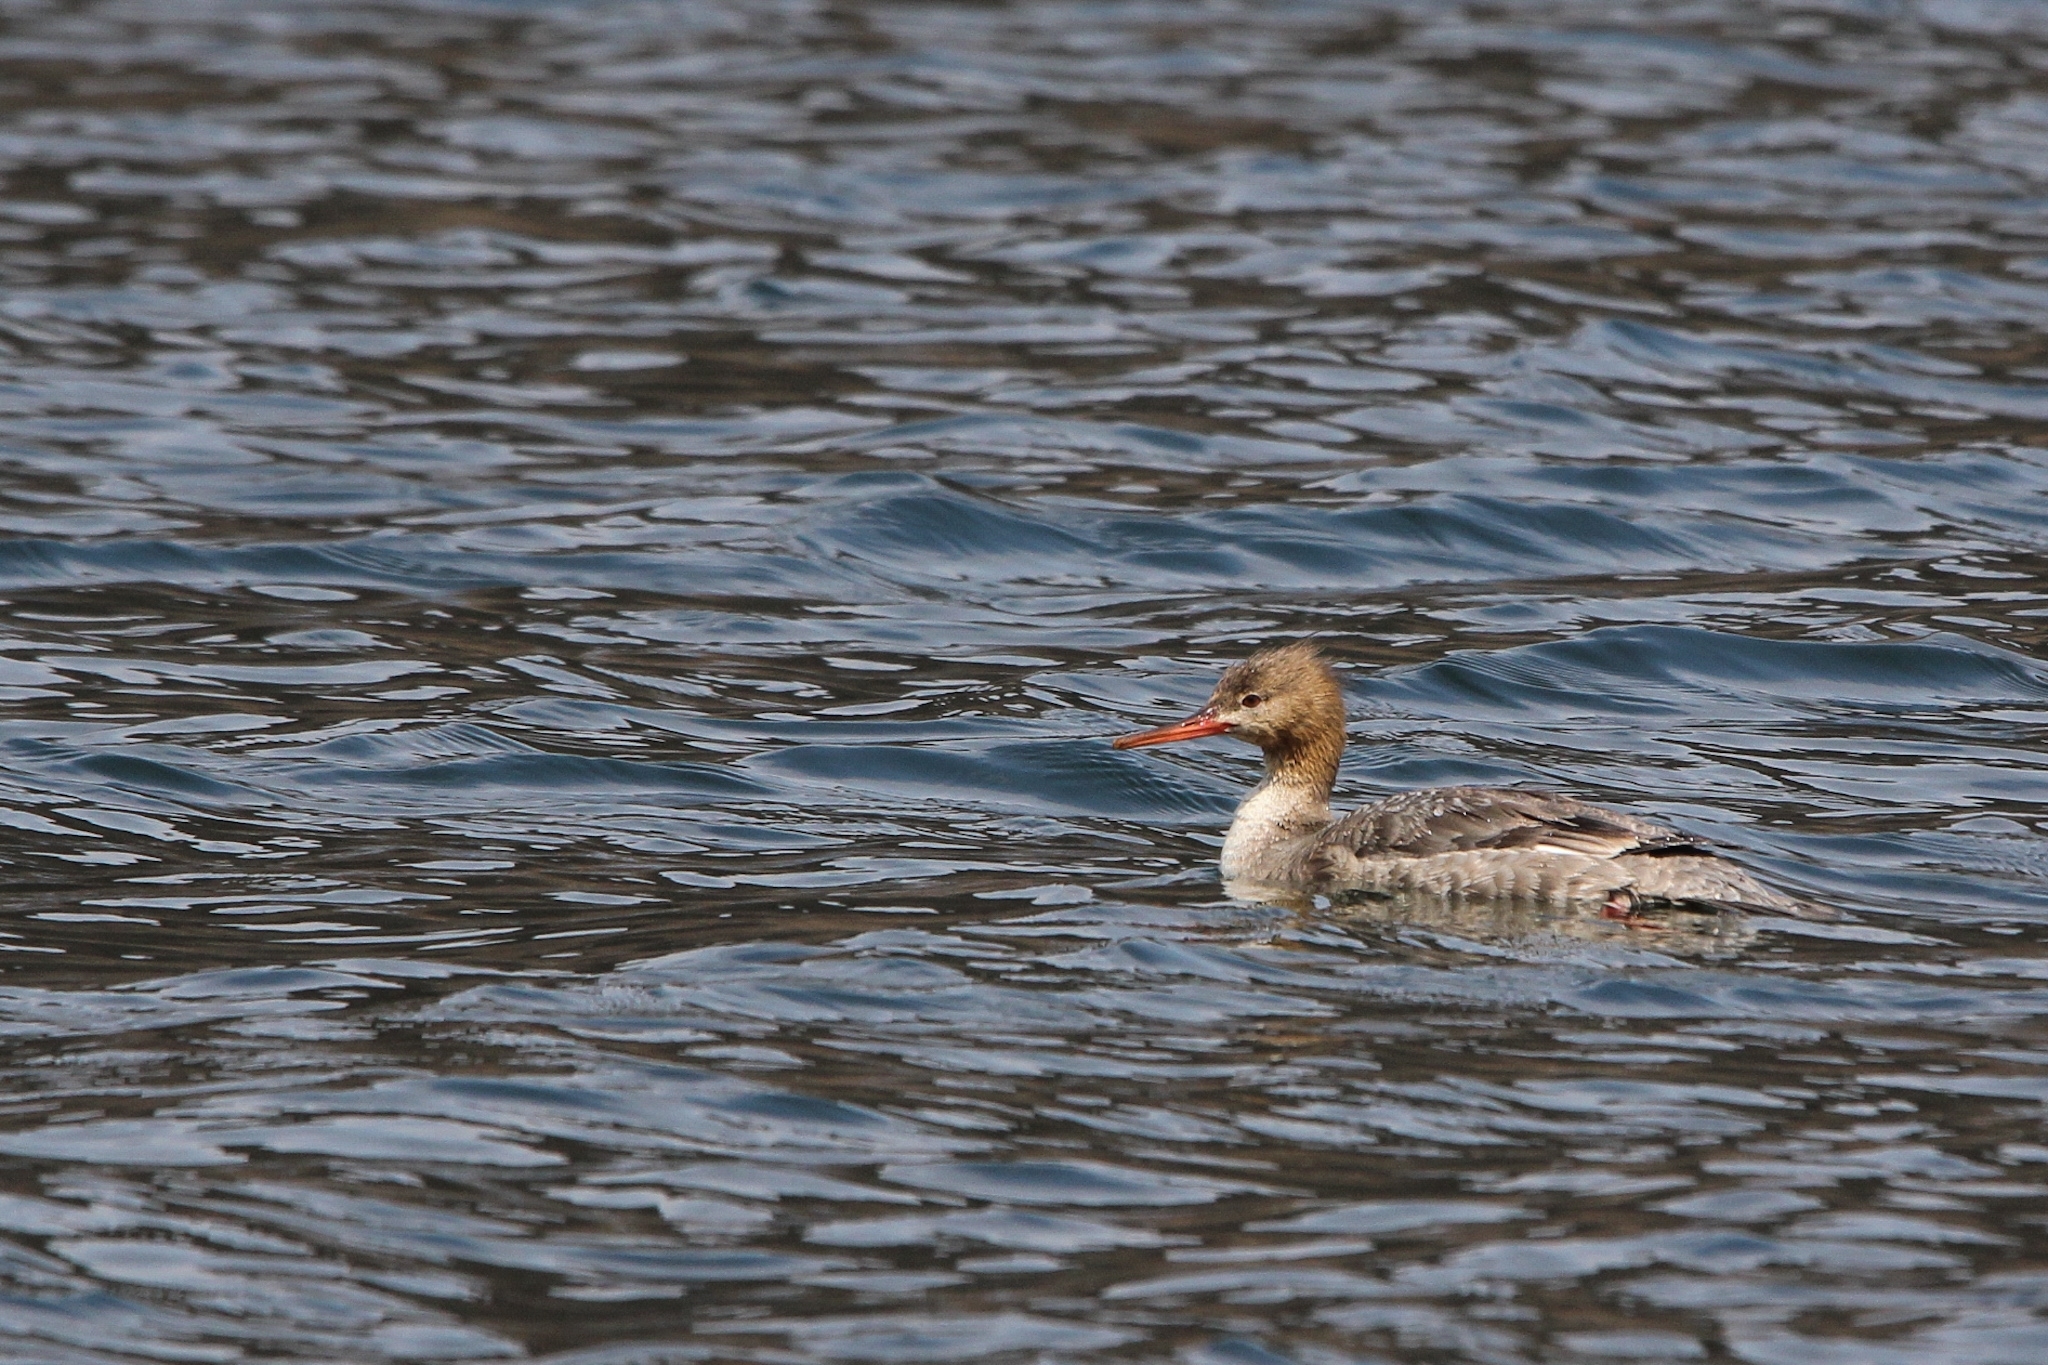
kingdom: Animalia
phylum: Chordata
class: Aves
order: Anseriformes
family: Anatidae
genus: Mergus
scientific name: Mergus serrator
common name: Red-breasted merganser
